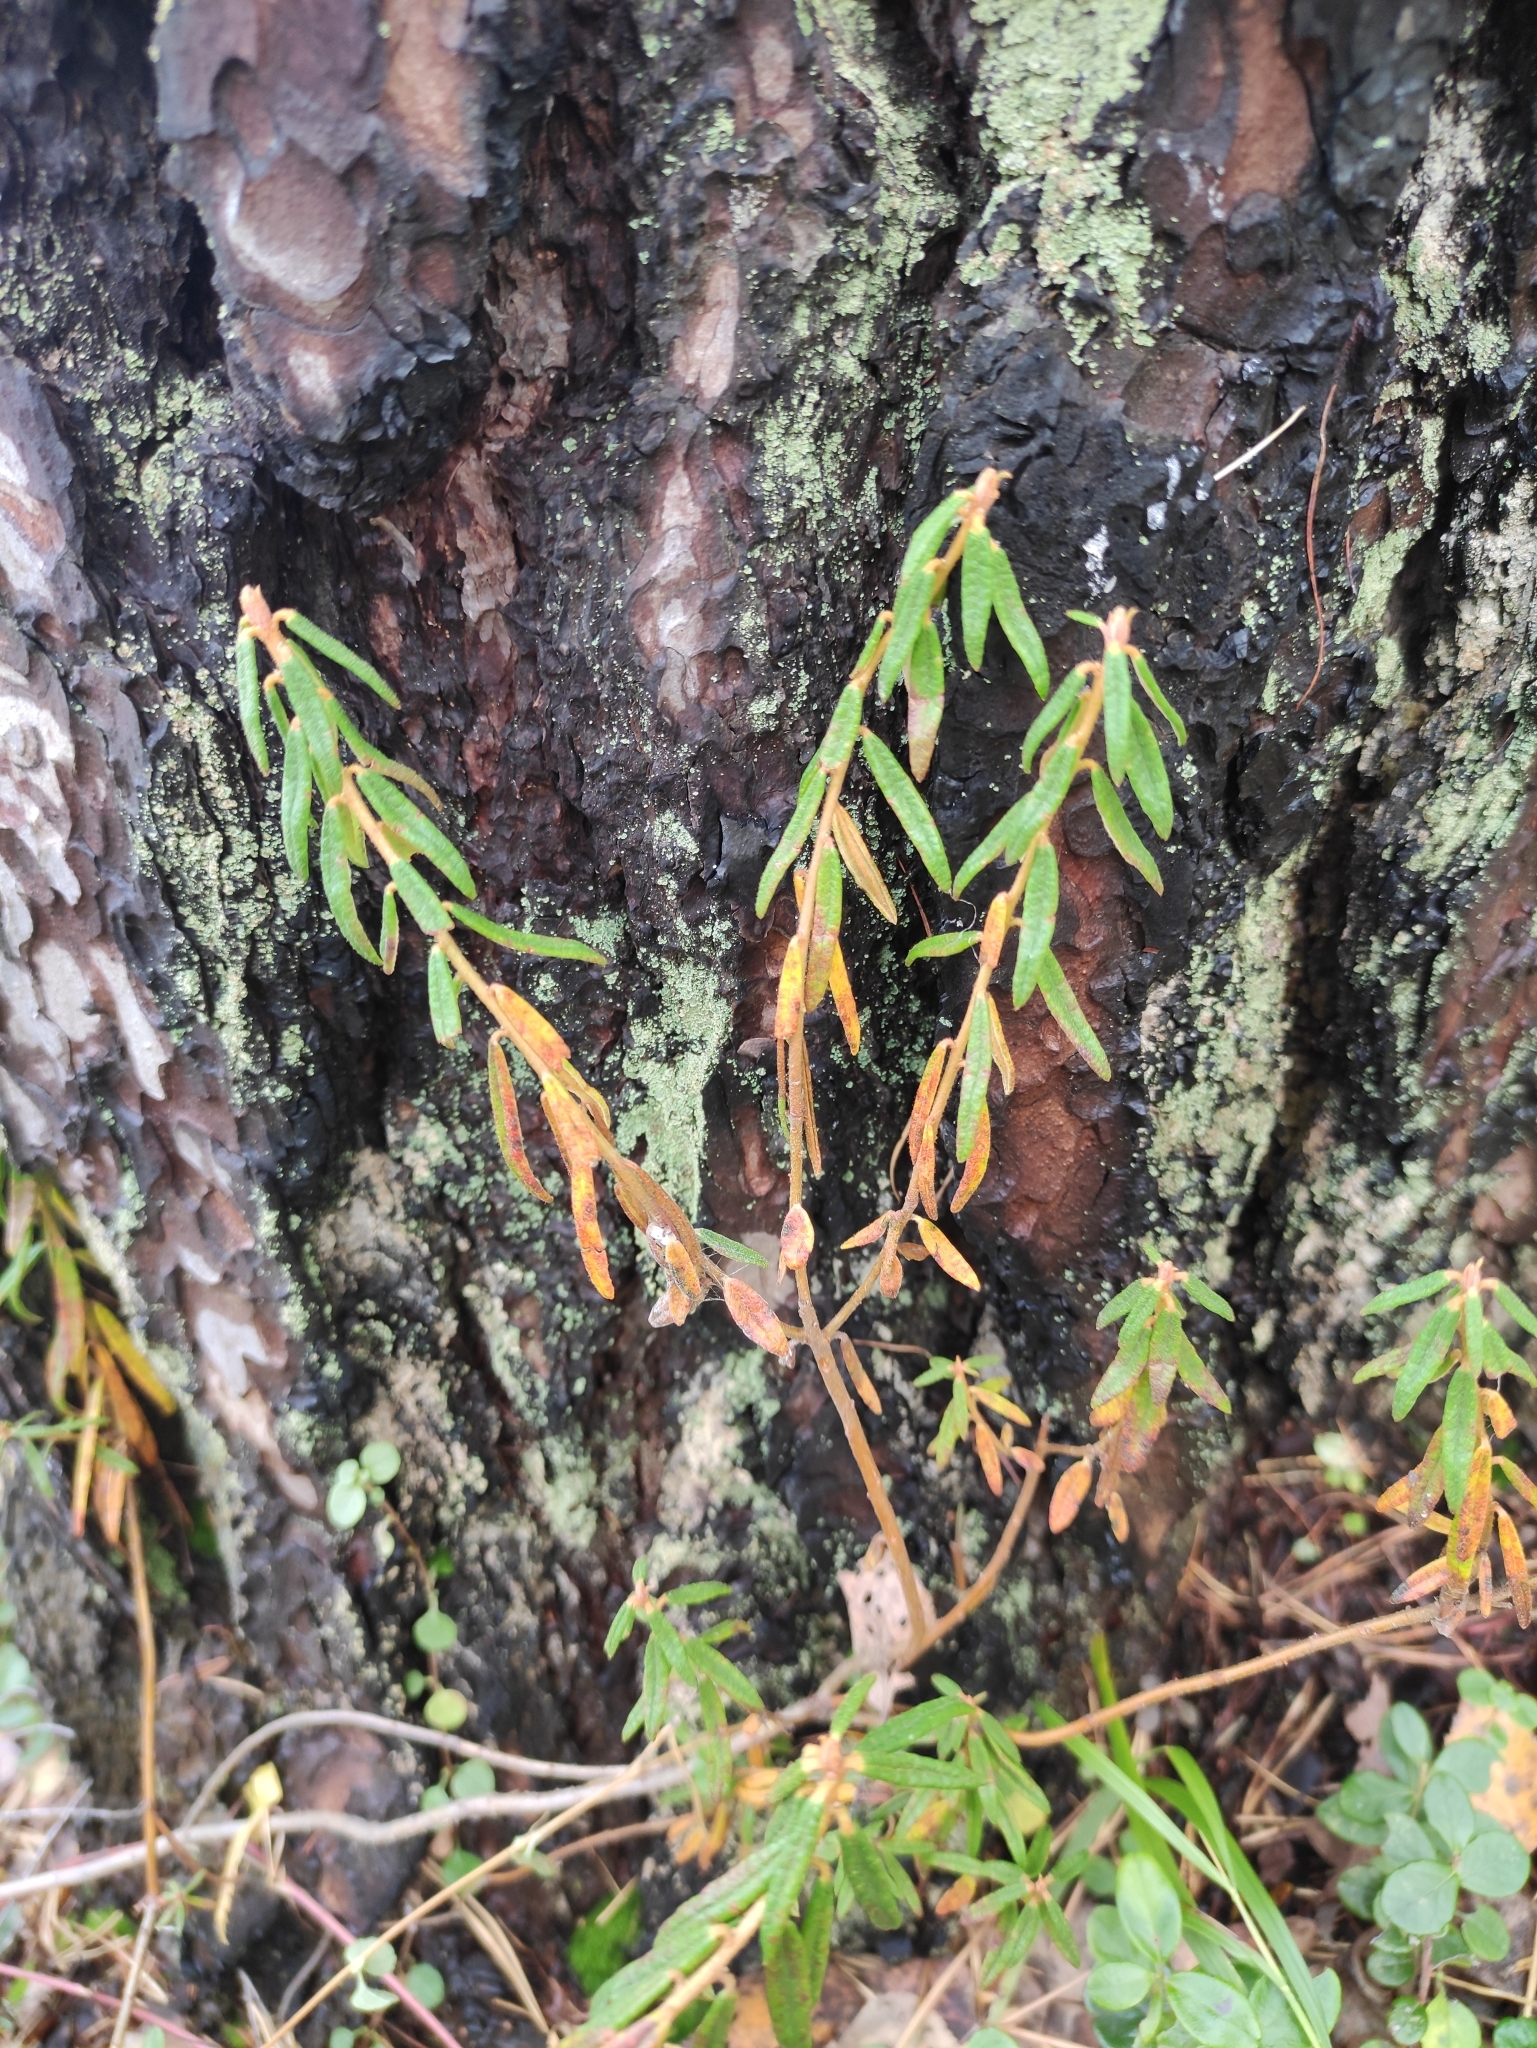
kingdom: Plantae
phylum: Tracheophyta
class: Magnoliopsida
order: Ericales
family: Ericaceae
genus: Rhododendron
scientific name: Rhododendron tomentosum
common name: Marsh labrador tea
